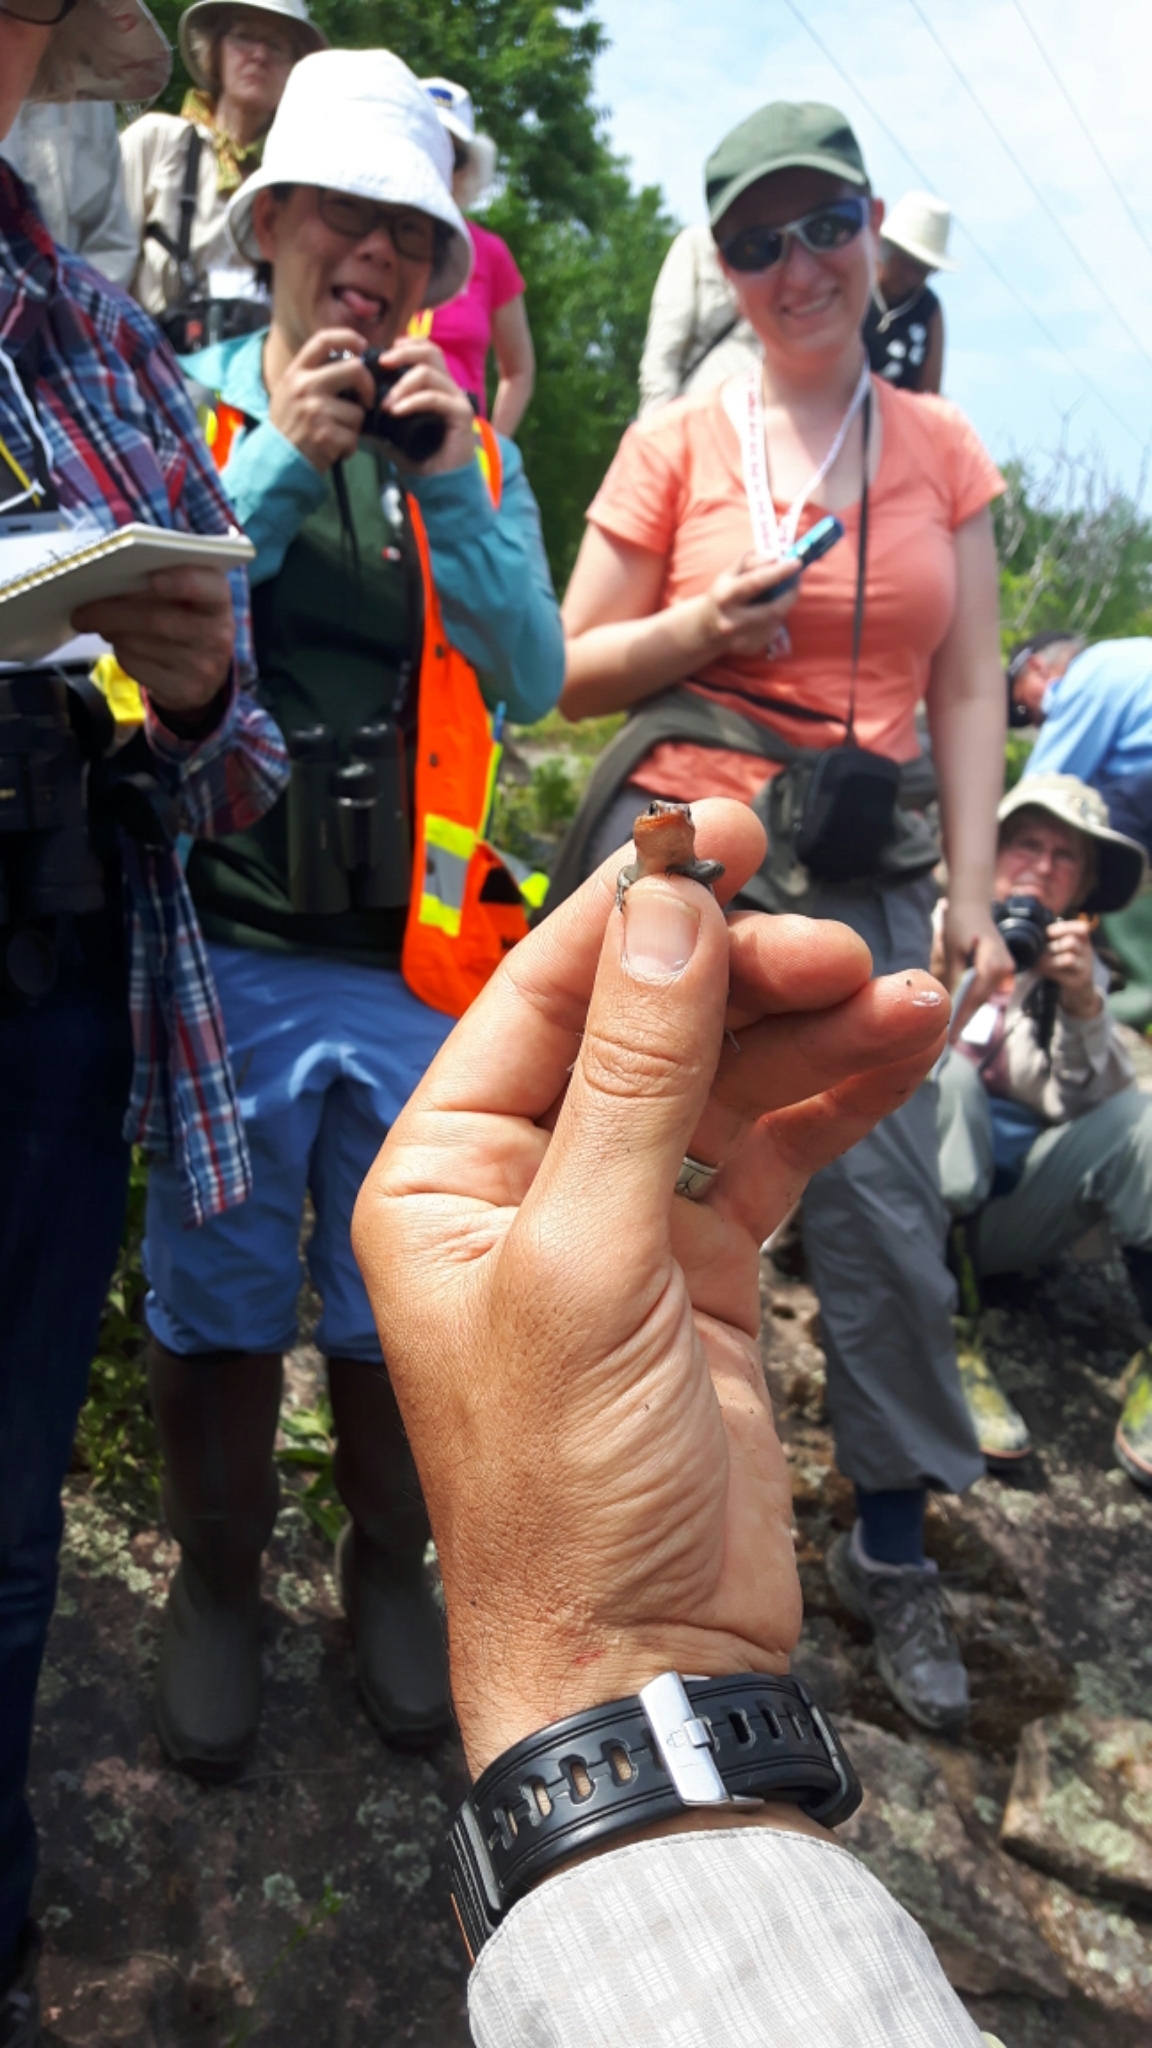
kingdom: Animalia
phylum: Chordata
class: Squamata
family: Scincidae
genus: Plestiodon
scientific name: Plestiodon fasciatus
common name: Five-lined skink
